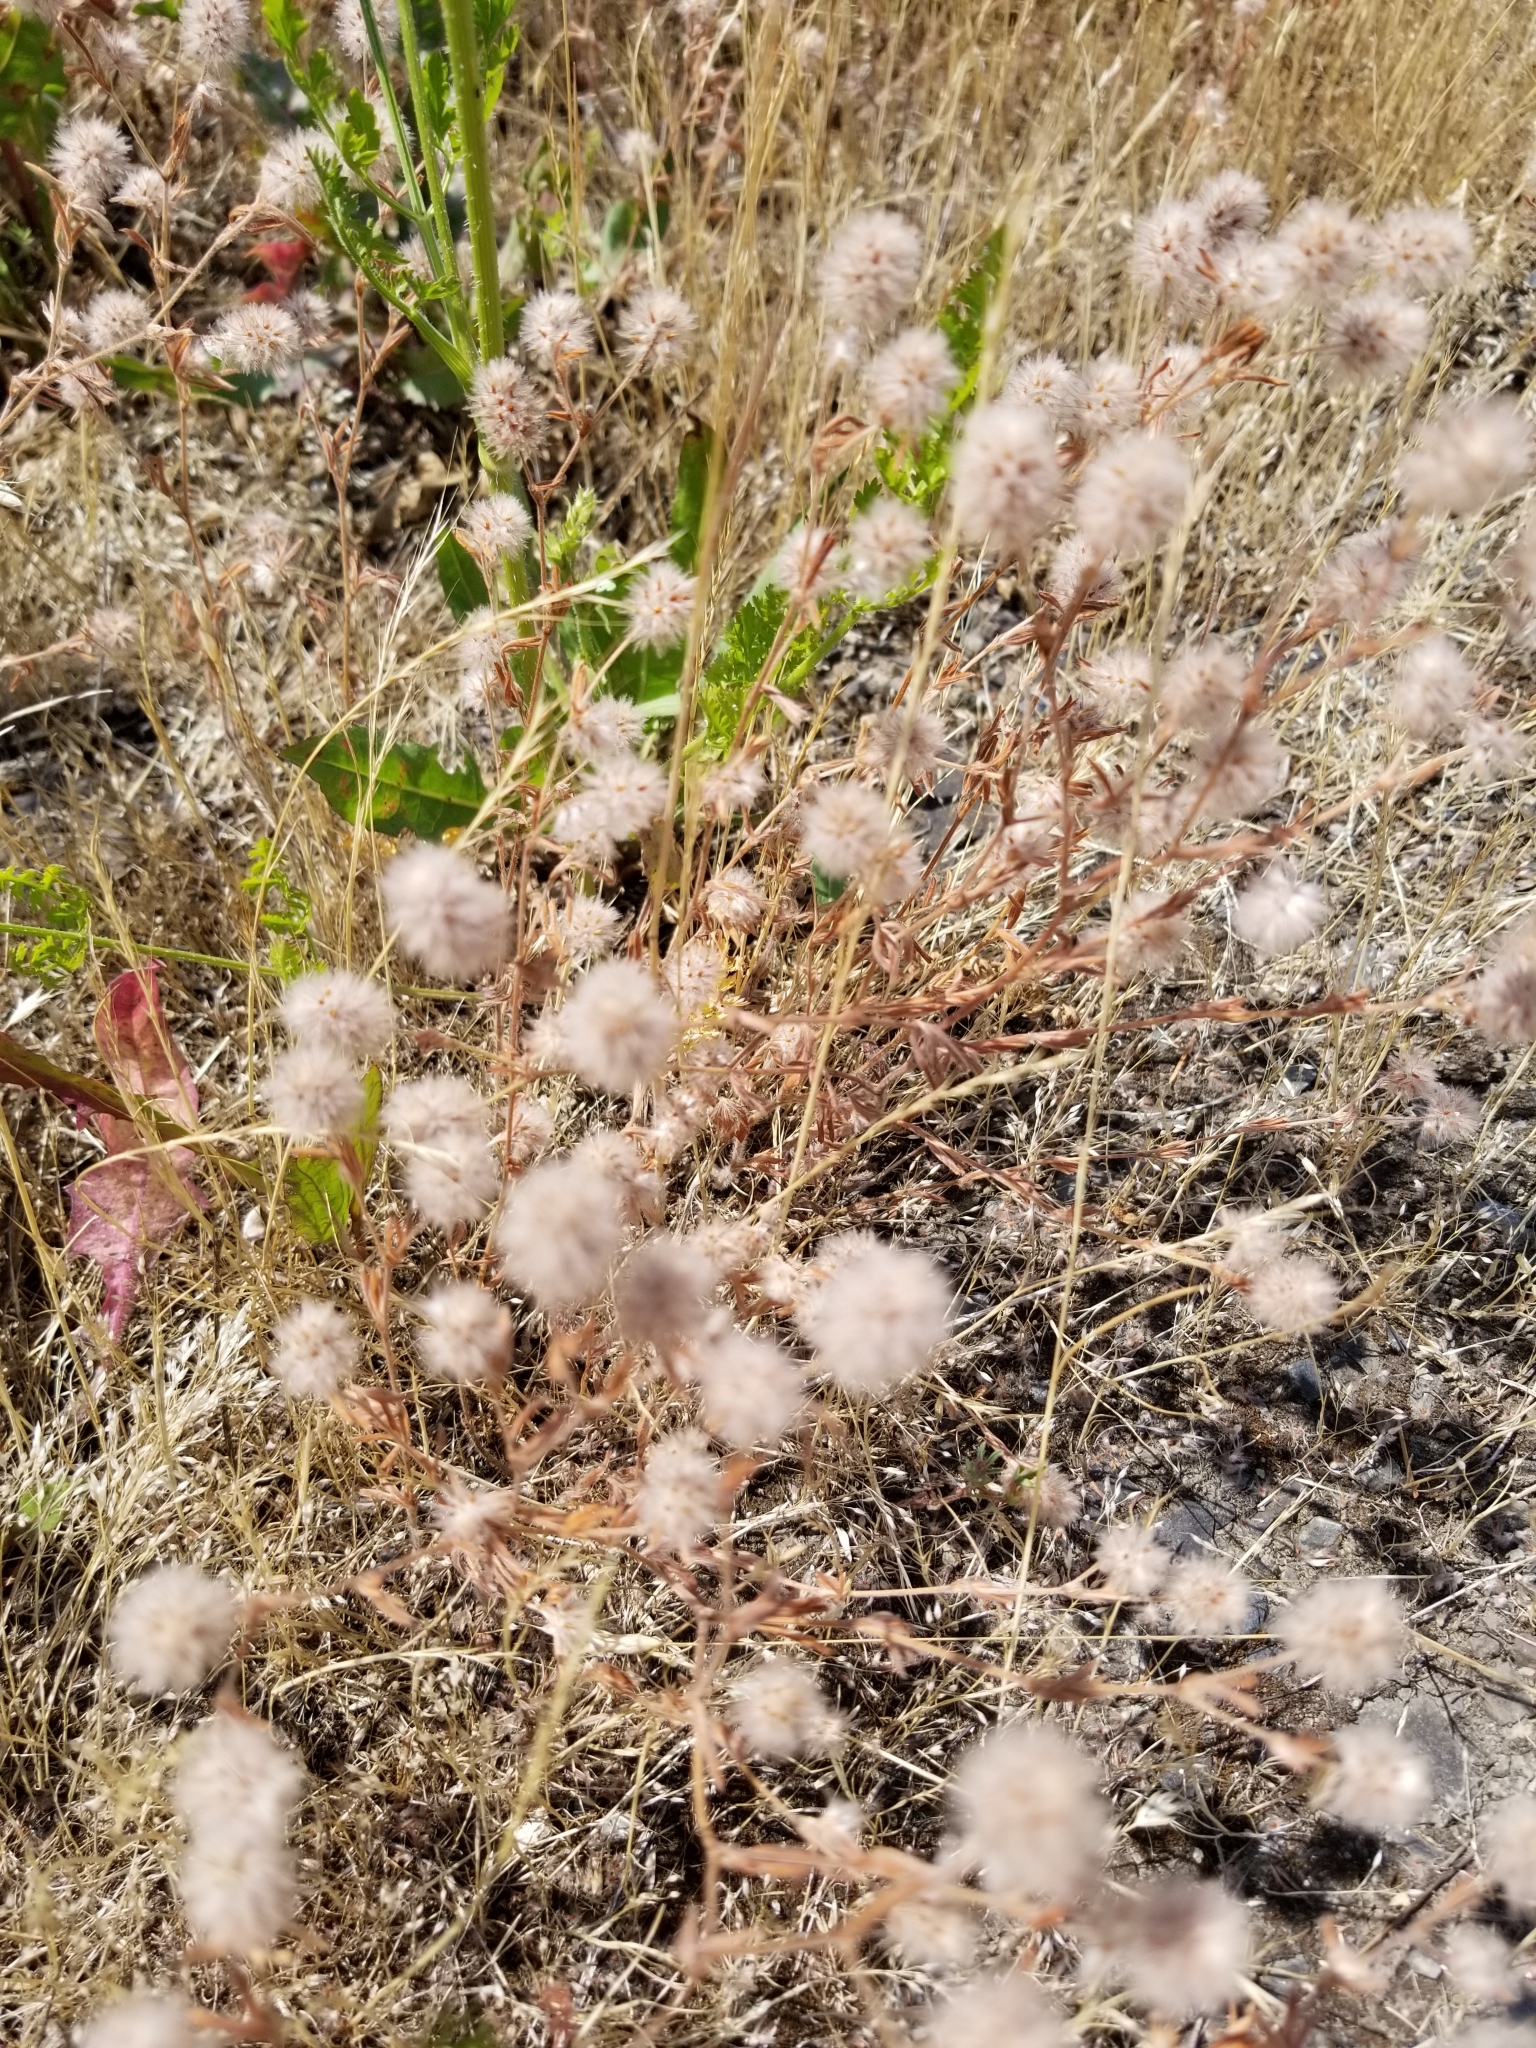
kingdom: Plantae
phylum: Tracheophyta
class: Magnoliopsida
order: Fabales
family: Fabaceae
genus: Trifolium
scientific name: Trifolium arvense
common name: Hare's-foot clover
